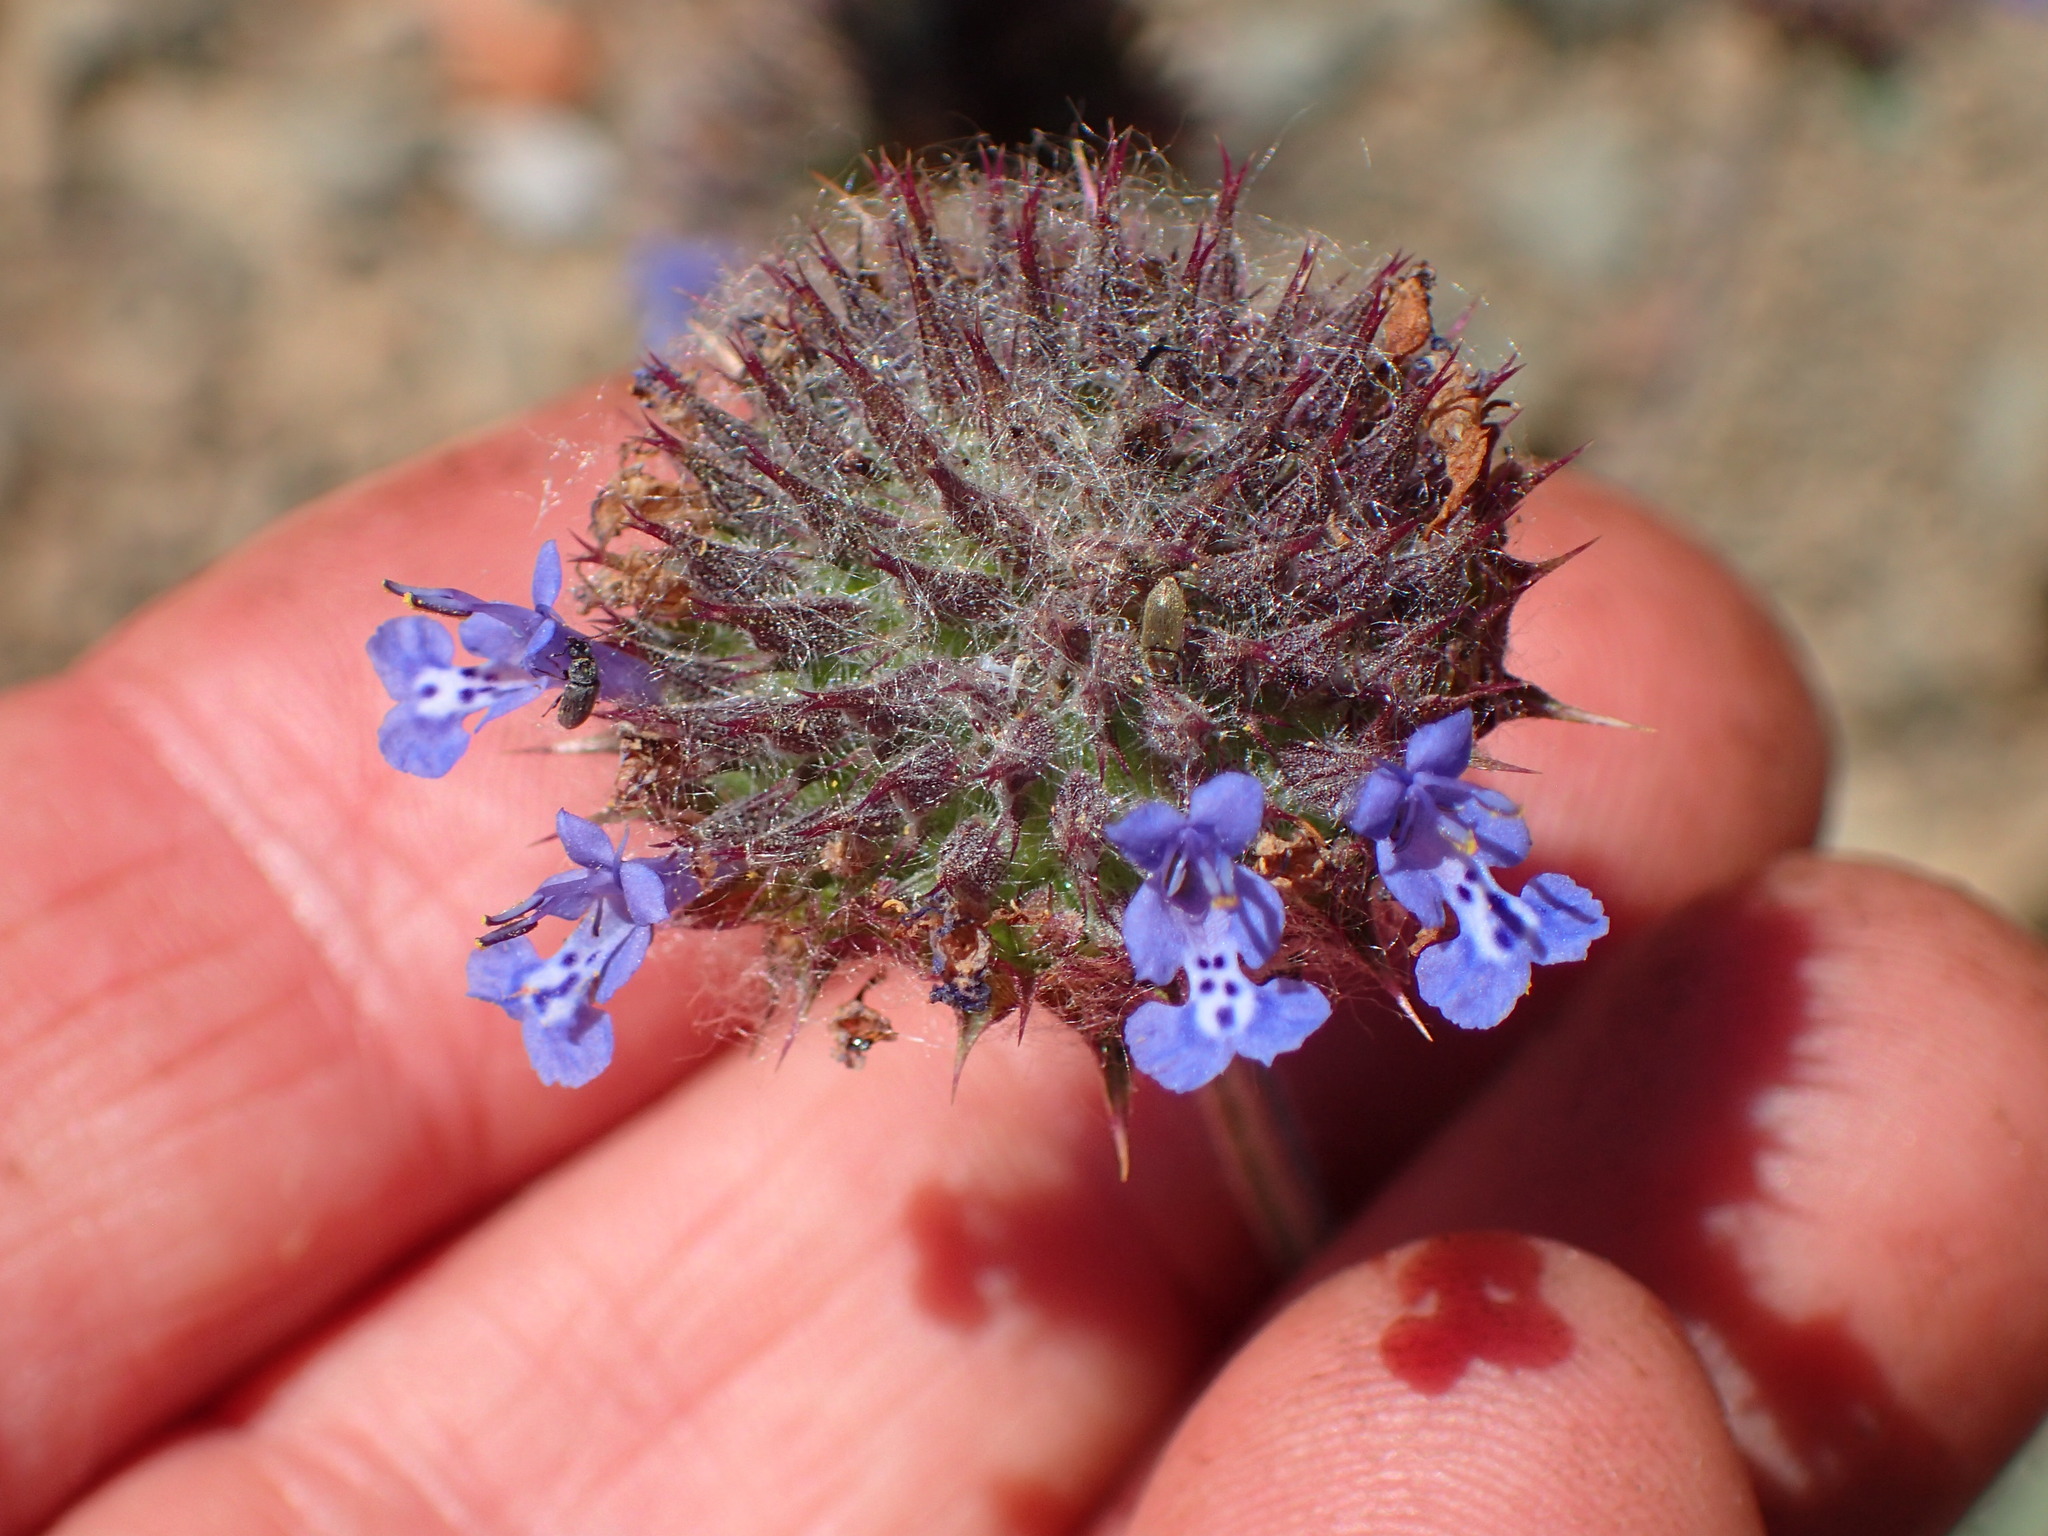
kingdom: Plantae
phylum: Tracheophyta
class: Magnoliopsida
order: Lamiales
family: Lamiaceae
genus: Salvia
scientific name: Salvia columbariae
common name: Chia
